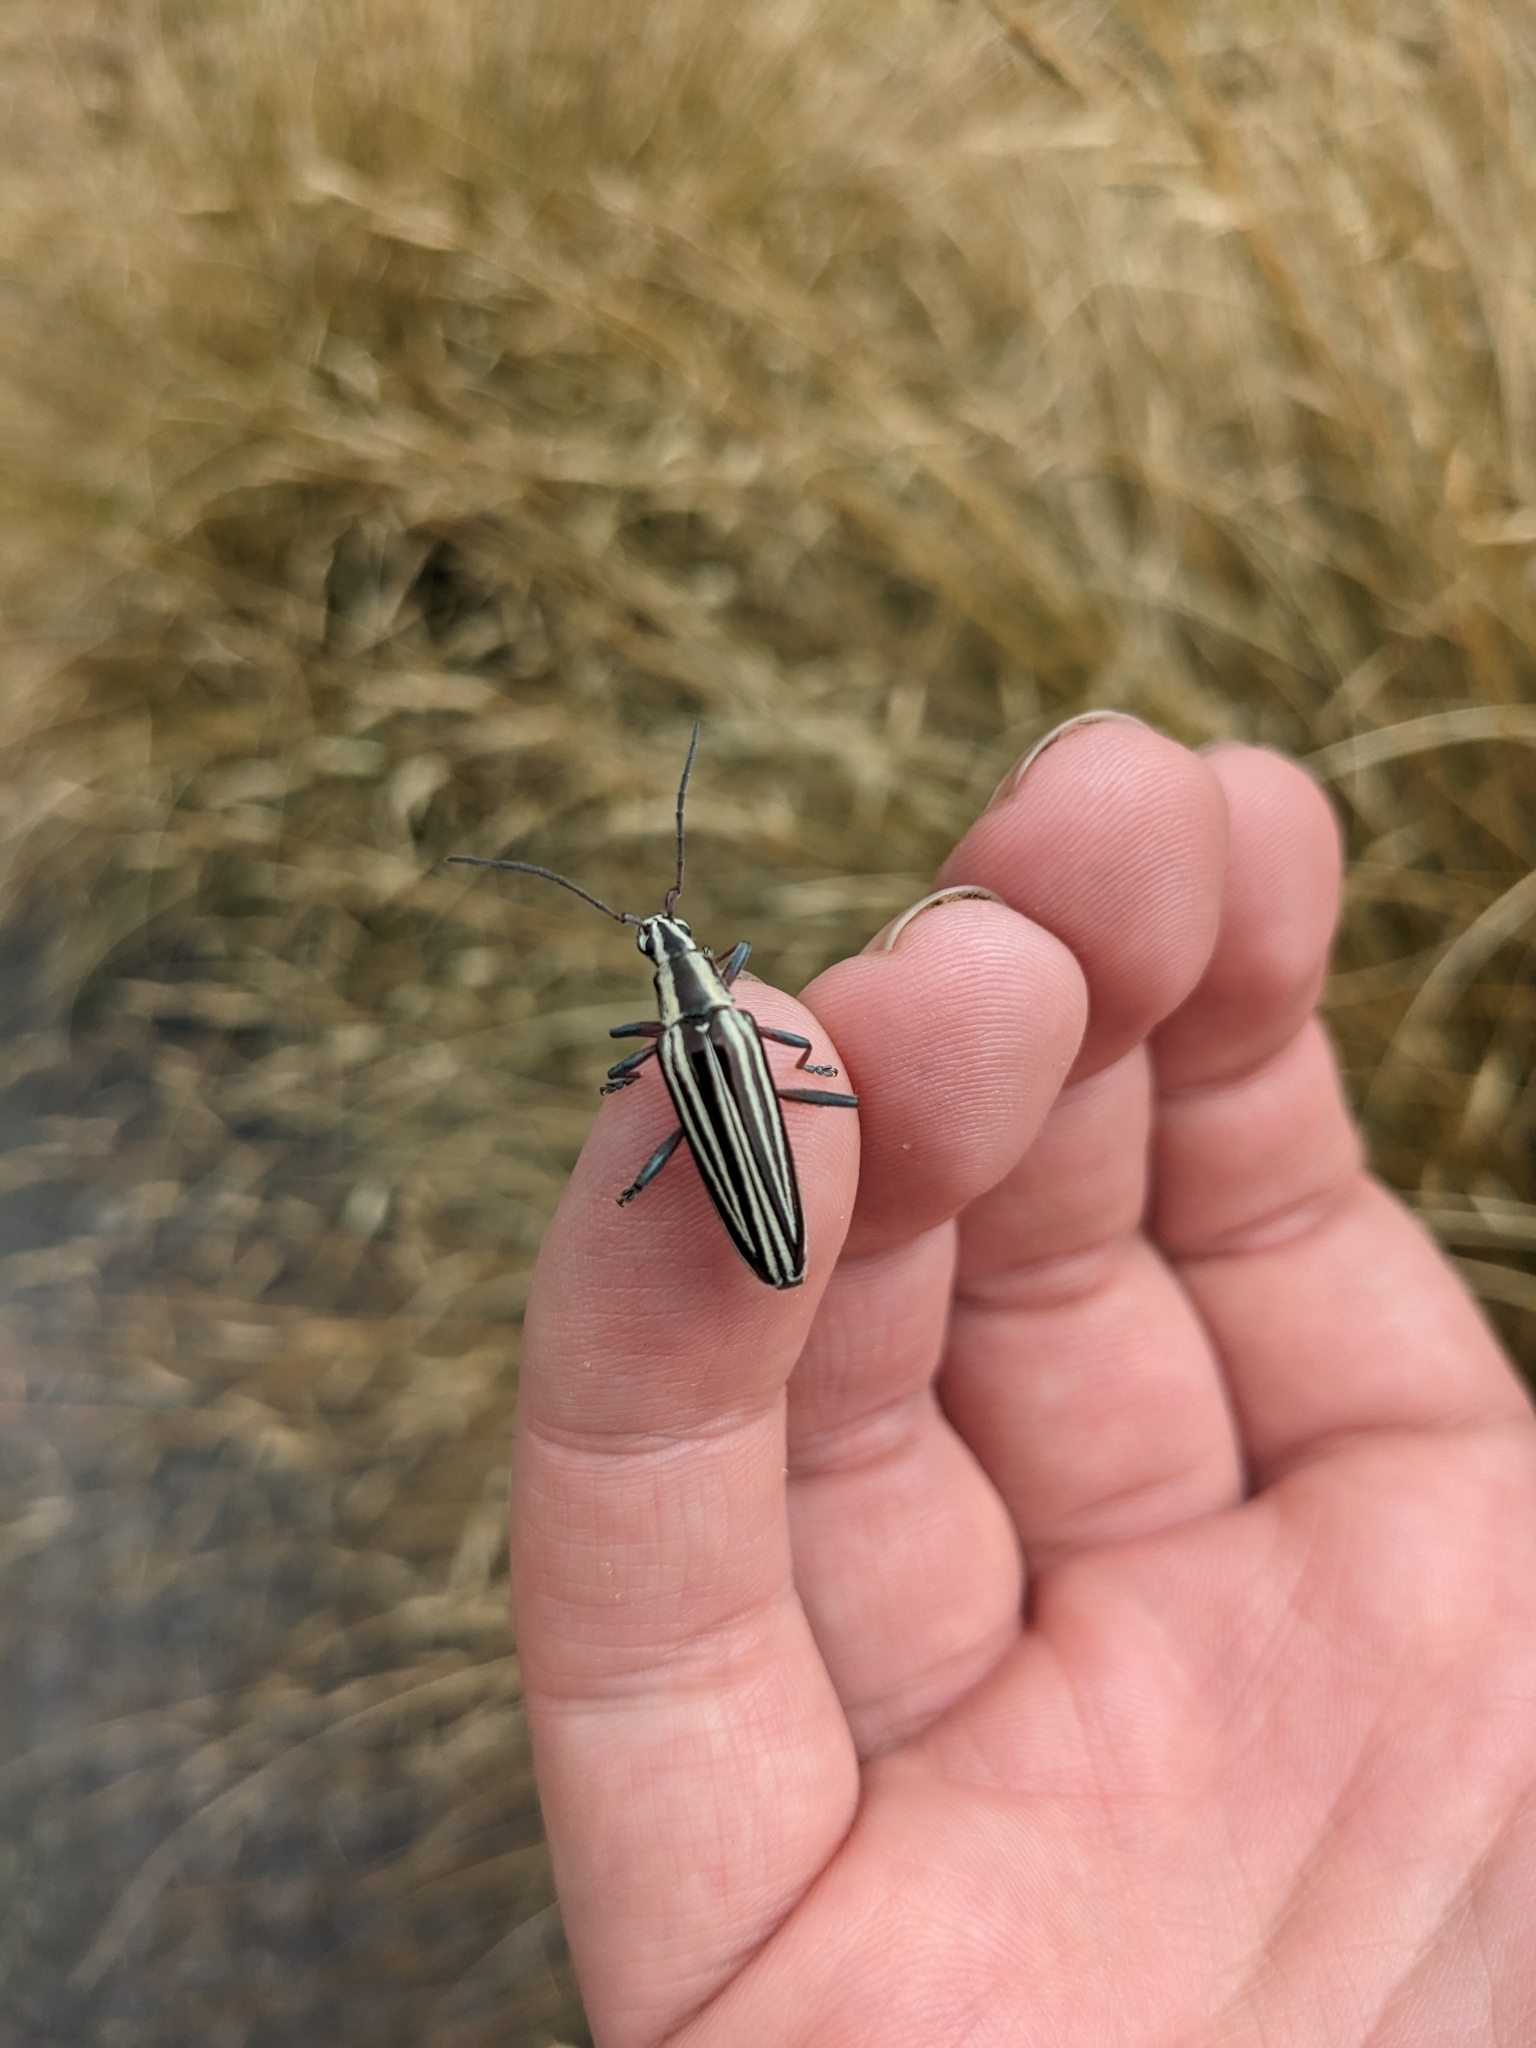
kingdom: Animalia
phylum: Arthropoda
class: Insecta
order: Coleoptera
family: Cerambycidae
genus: Coptomma
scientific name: Coptomma lineatum
